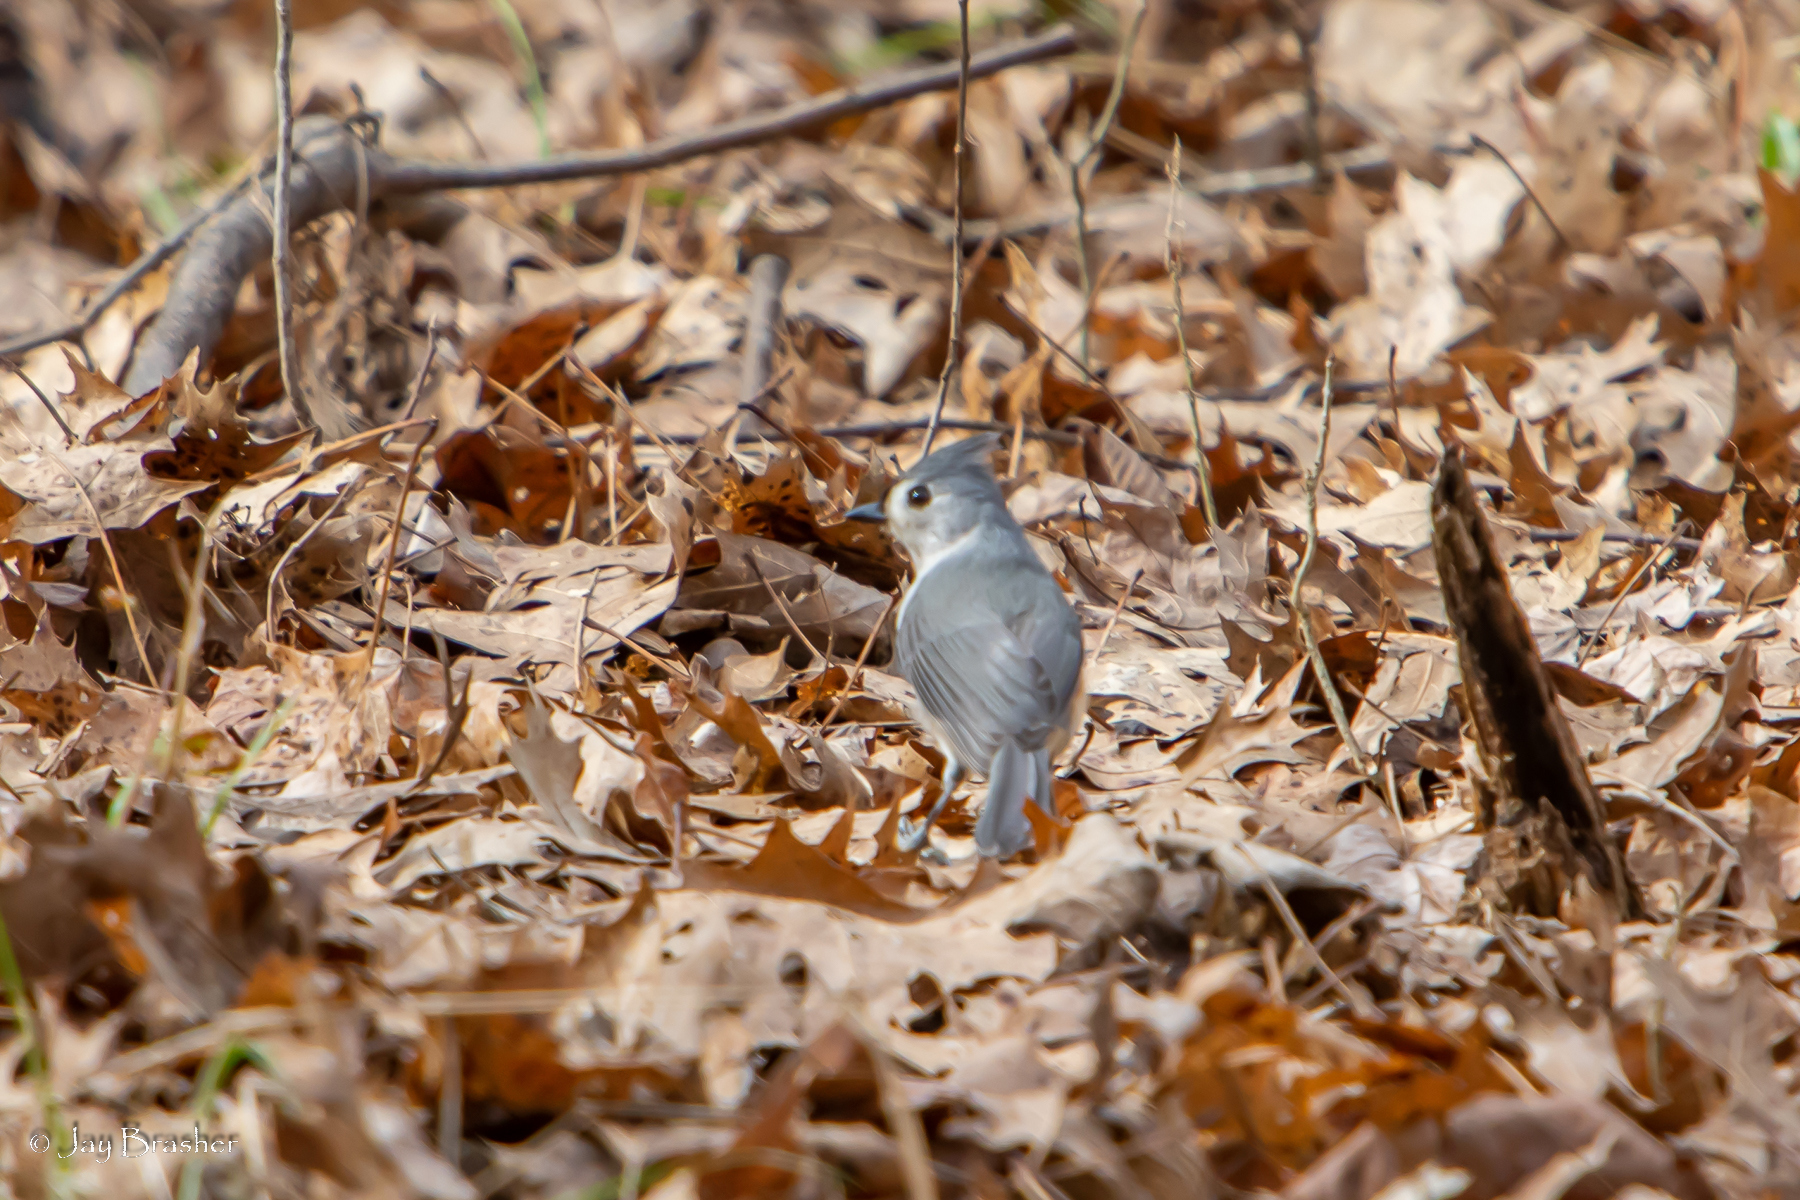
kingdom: Animalia
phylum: Chordata
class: Aves
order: Passeriformes
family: Paridae
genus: Baeolophus
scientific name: Baeolophus bicolor
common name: Tufted titmouse
